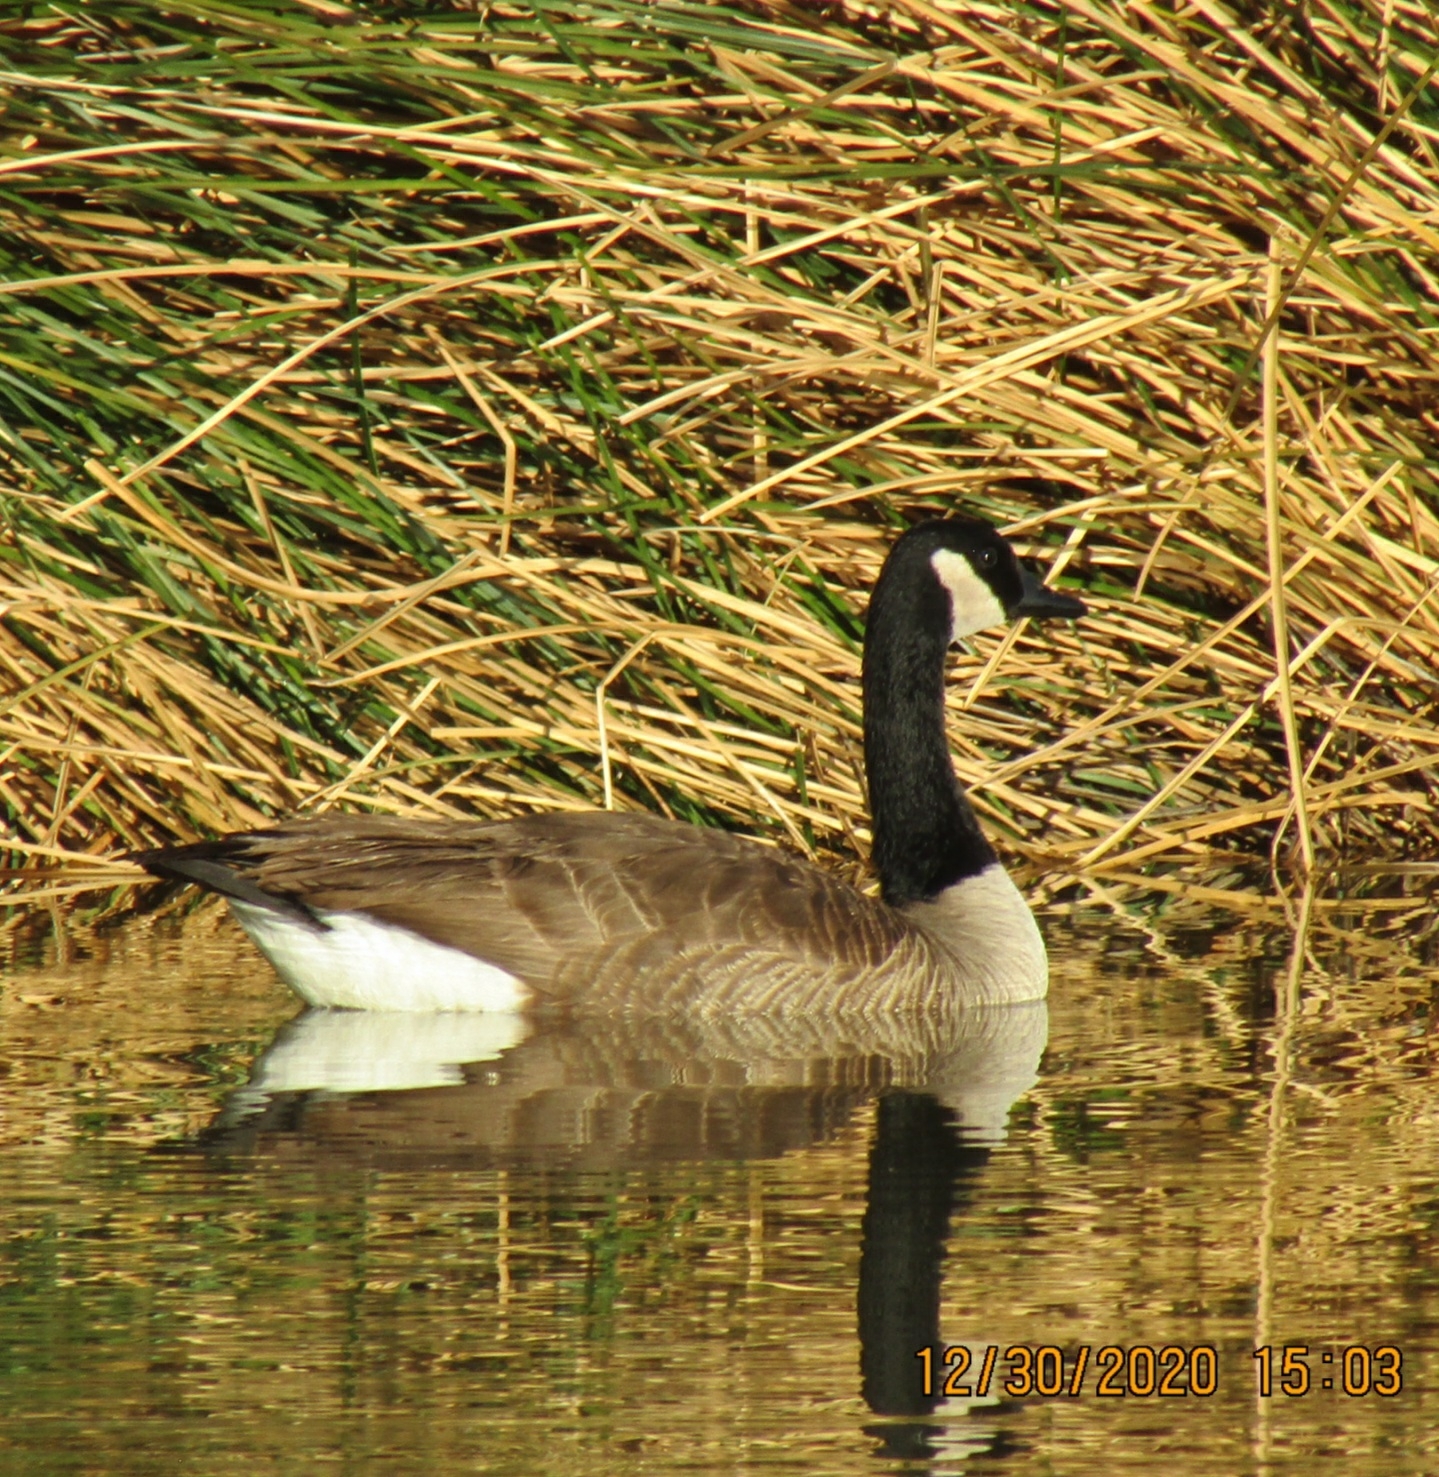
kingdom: Animalia
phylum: Chordata
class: Aves
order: Anseriformes
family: Anatidae
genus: Branta
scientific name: Branta canadensis
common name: Canada goose
